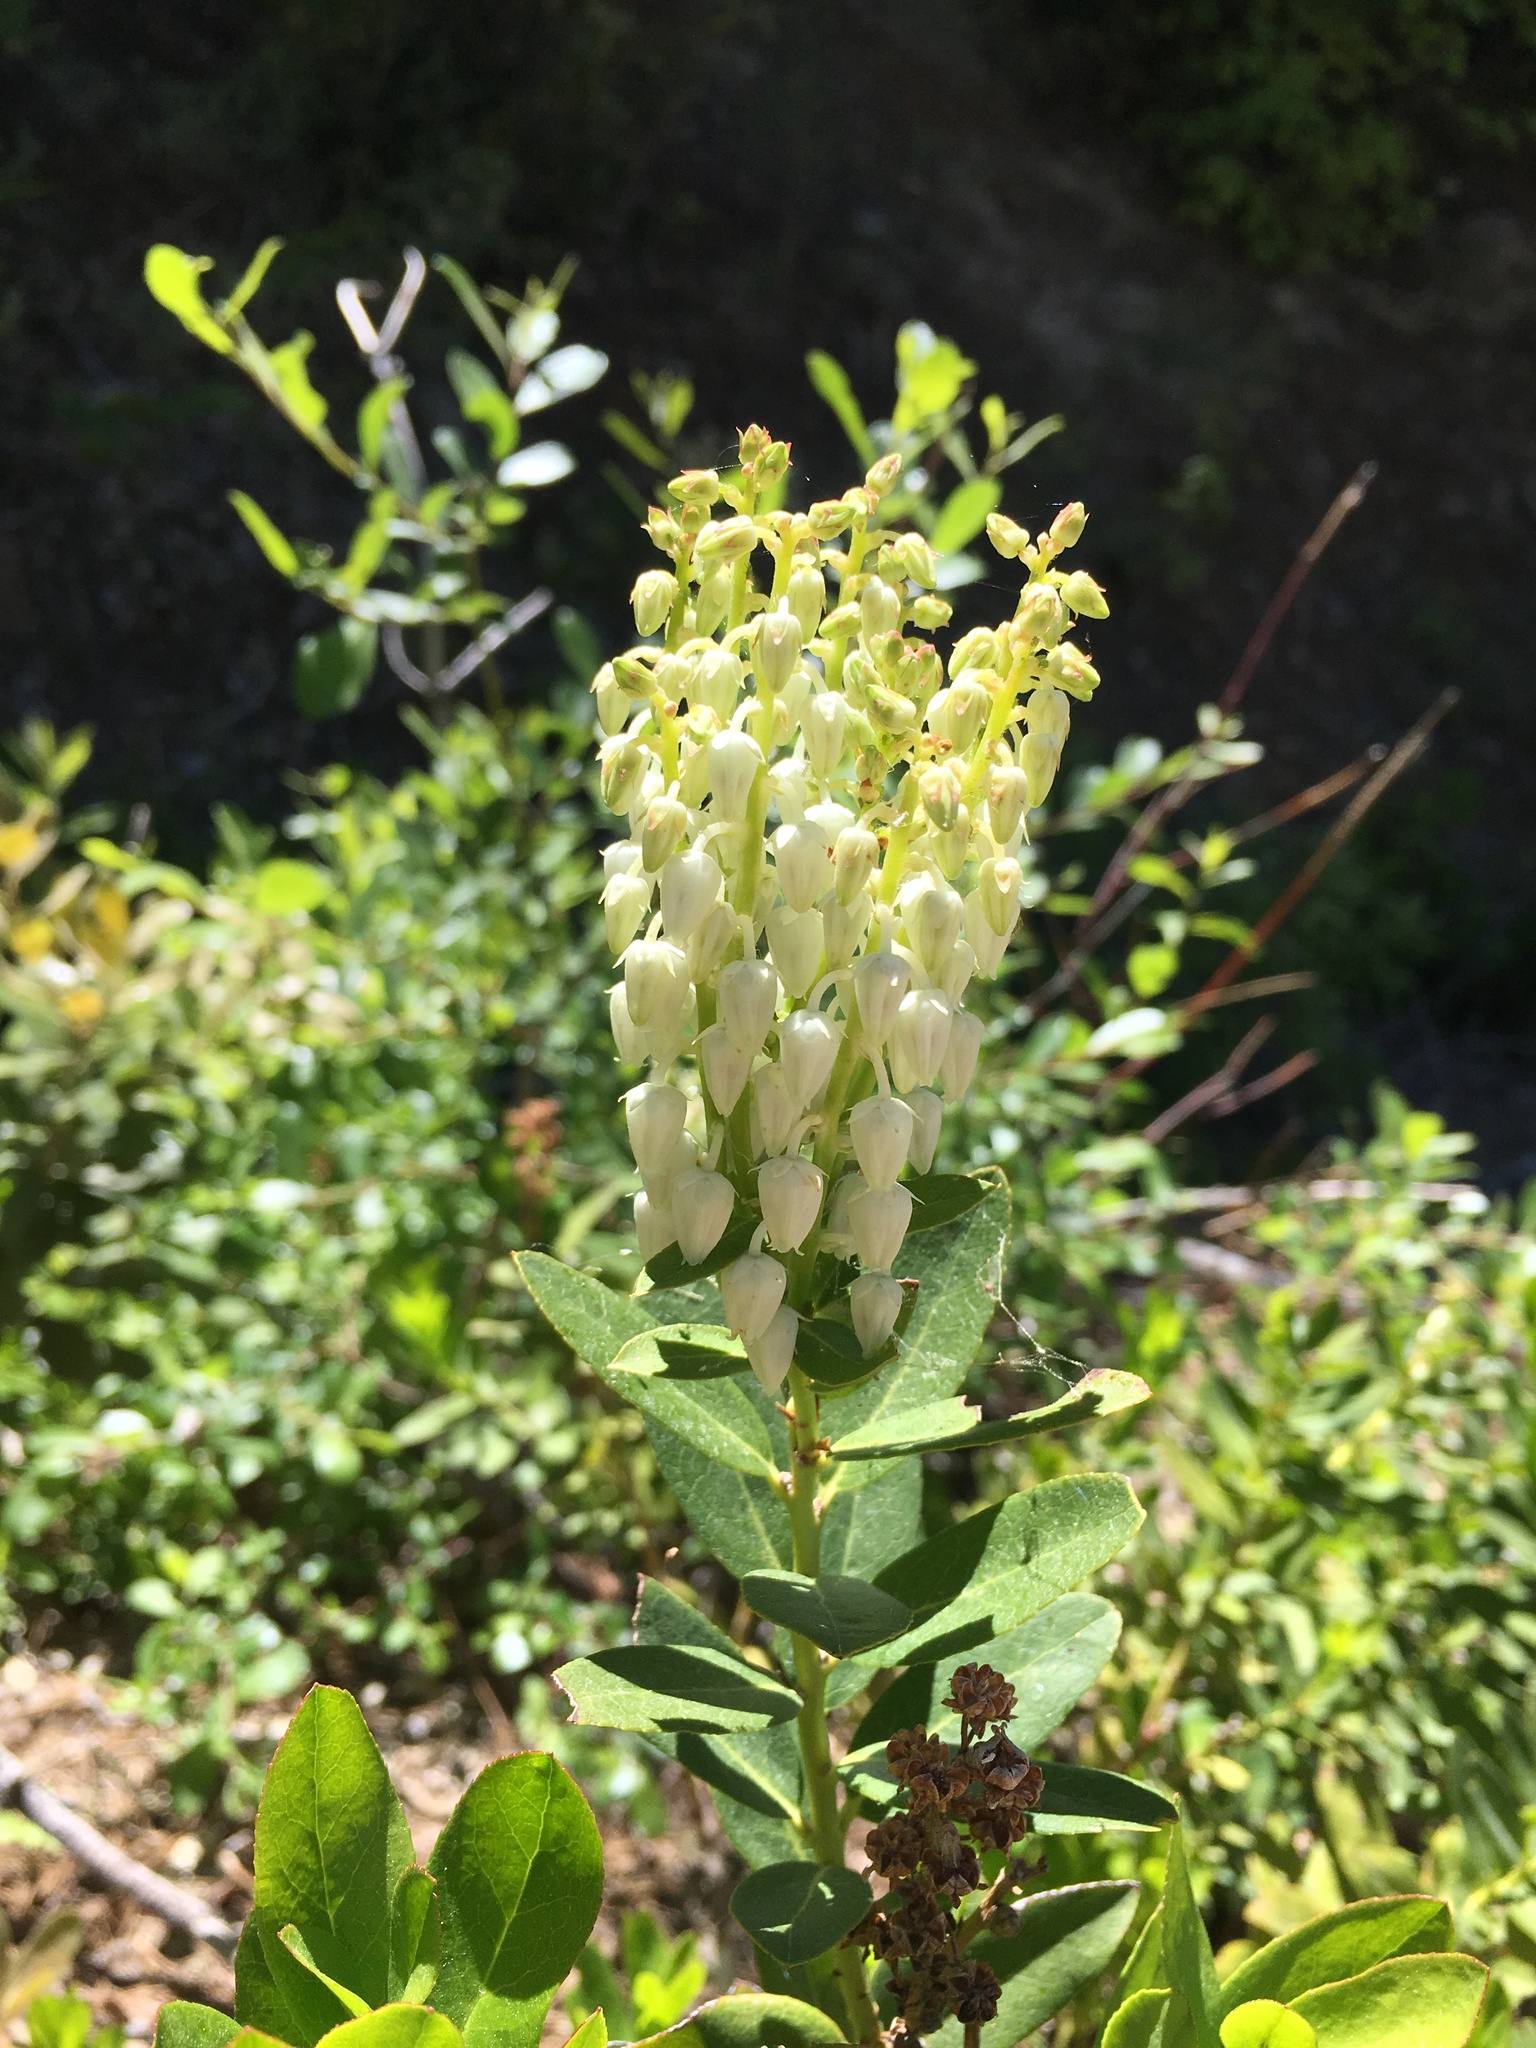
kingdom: Plantae
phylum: Tracheophyta
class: Magnoliopsida
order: Ericales
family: Ericaceae
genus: Leucothoe
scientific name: Leucothoe davisiae
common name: Sierra-laurel
